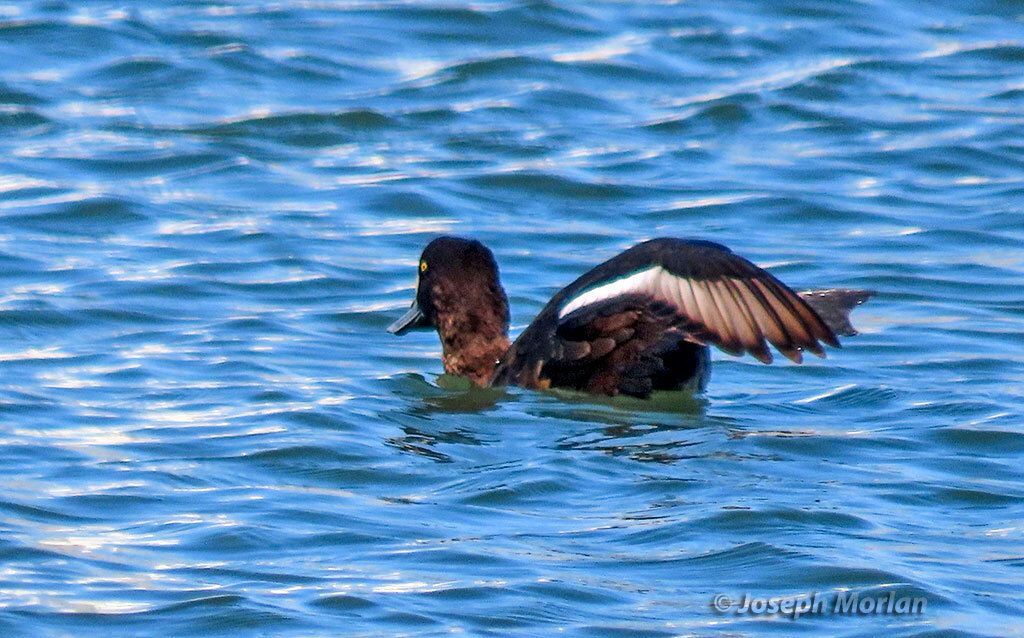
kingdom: Animalia
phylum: Chordata
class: Aves
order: Anseriformes
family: Anatidae
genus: Aythya
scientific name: Aythya marila
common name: Greater scaup
